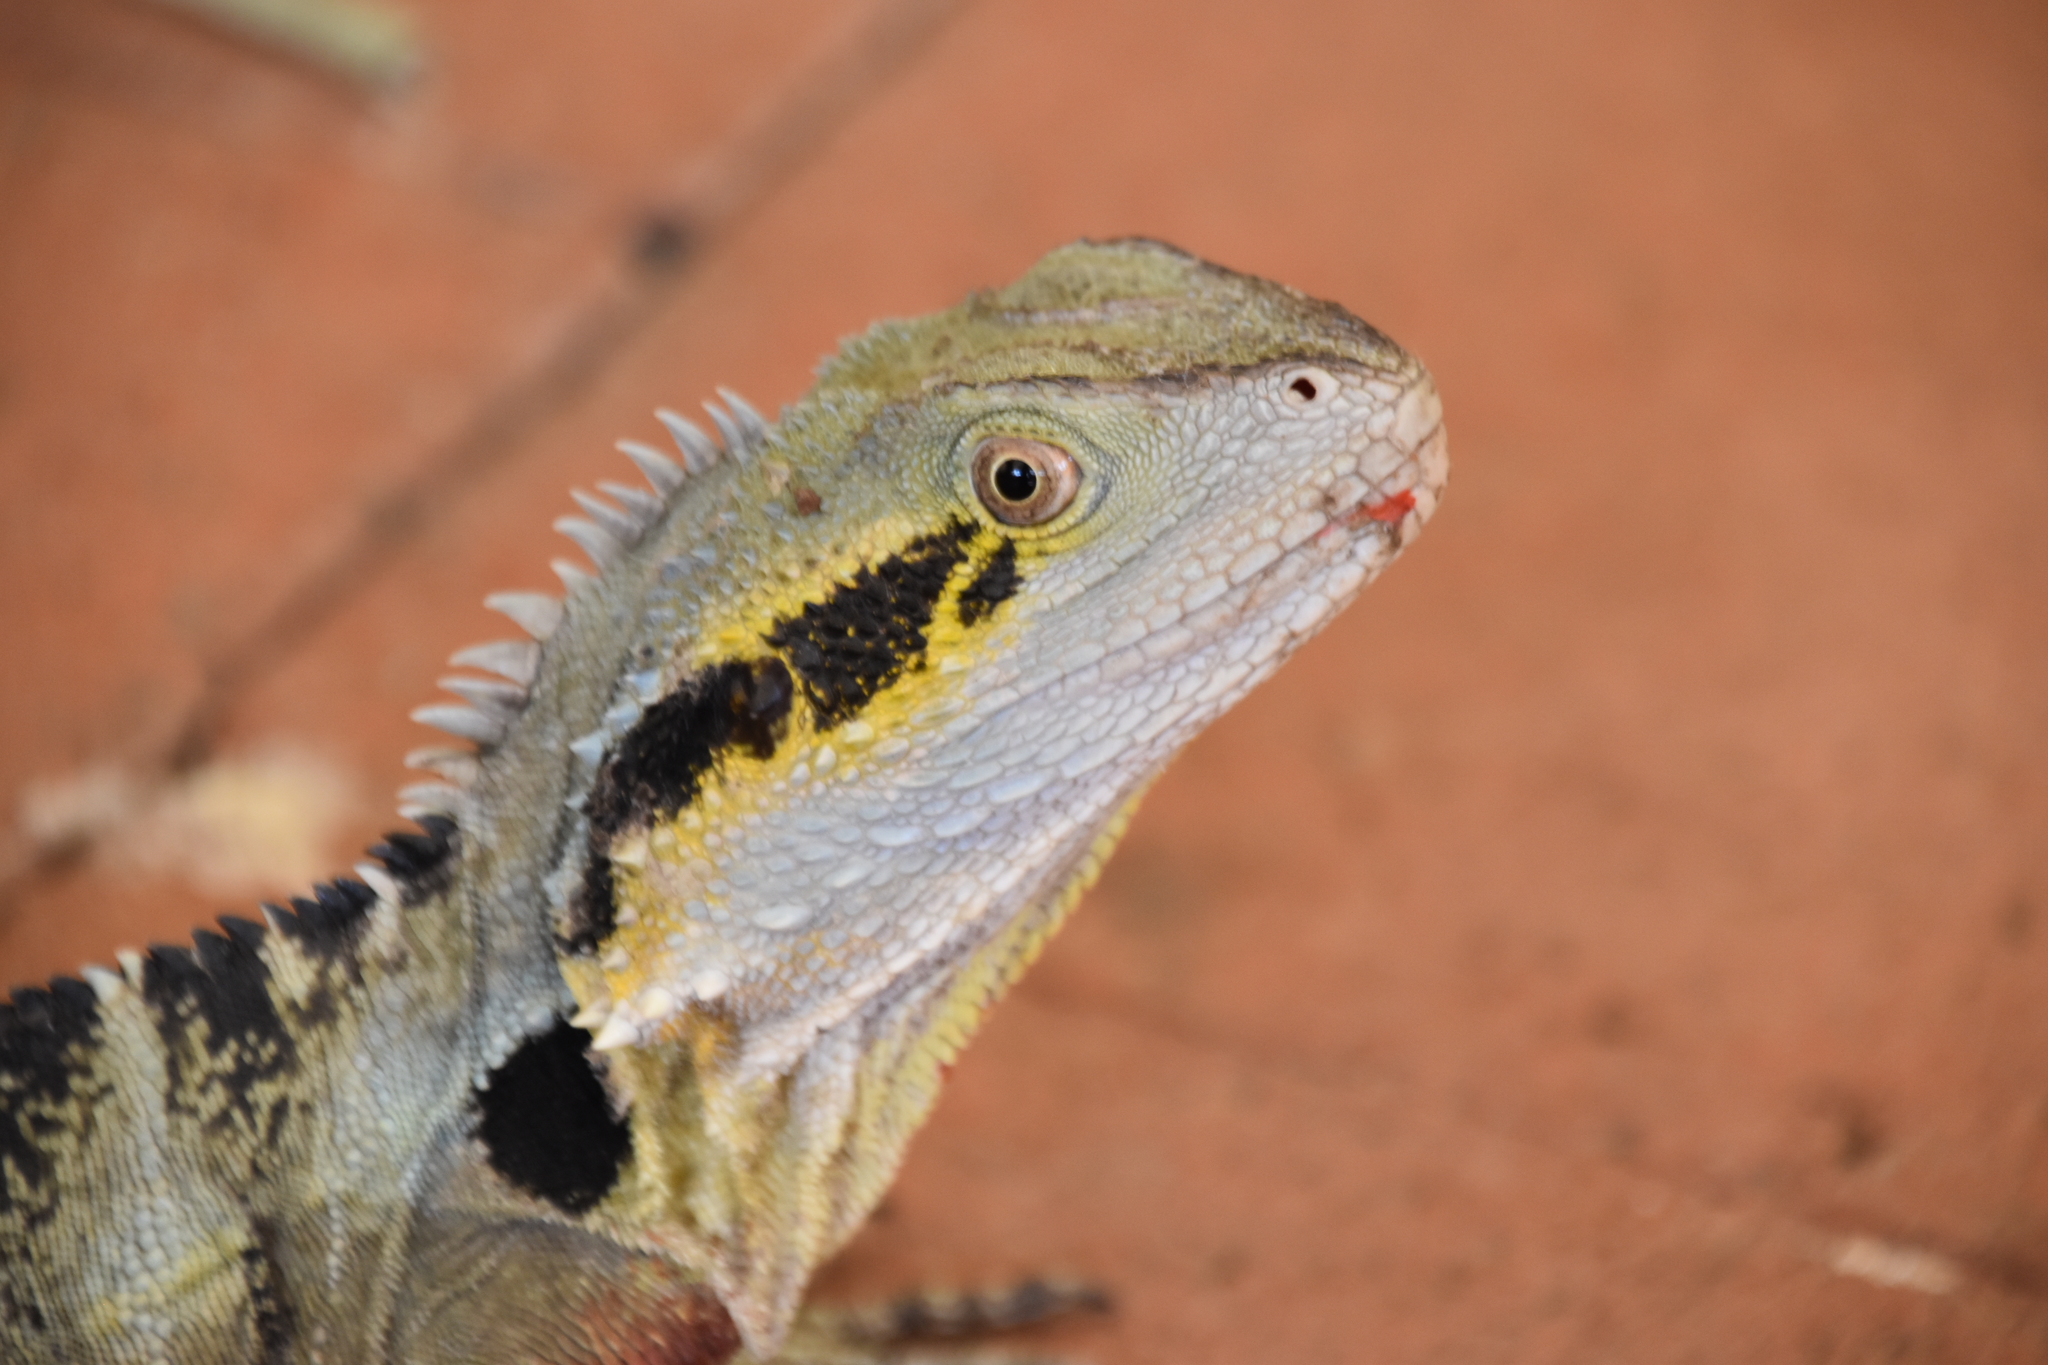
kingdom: Animalia
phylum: Chordata
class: Squamata
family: Agamidae
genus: Intellagama
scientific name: Intellagama lesueurii
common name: Eastern water dragon
